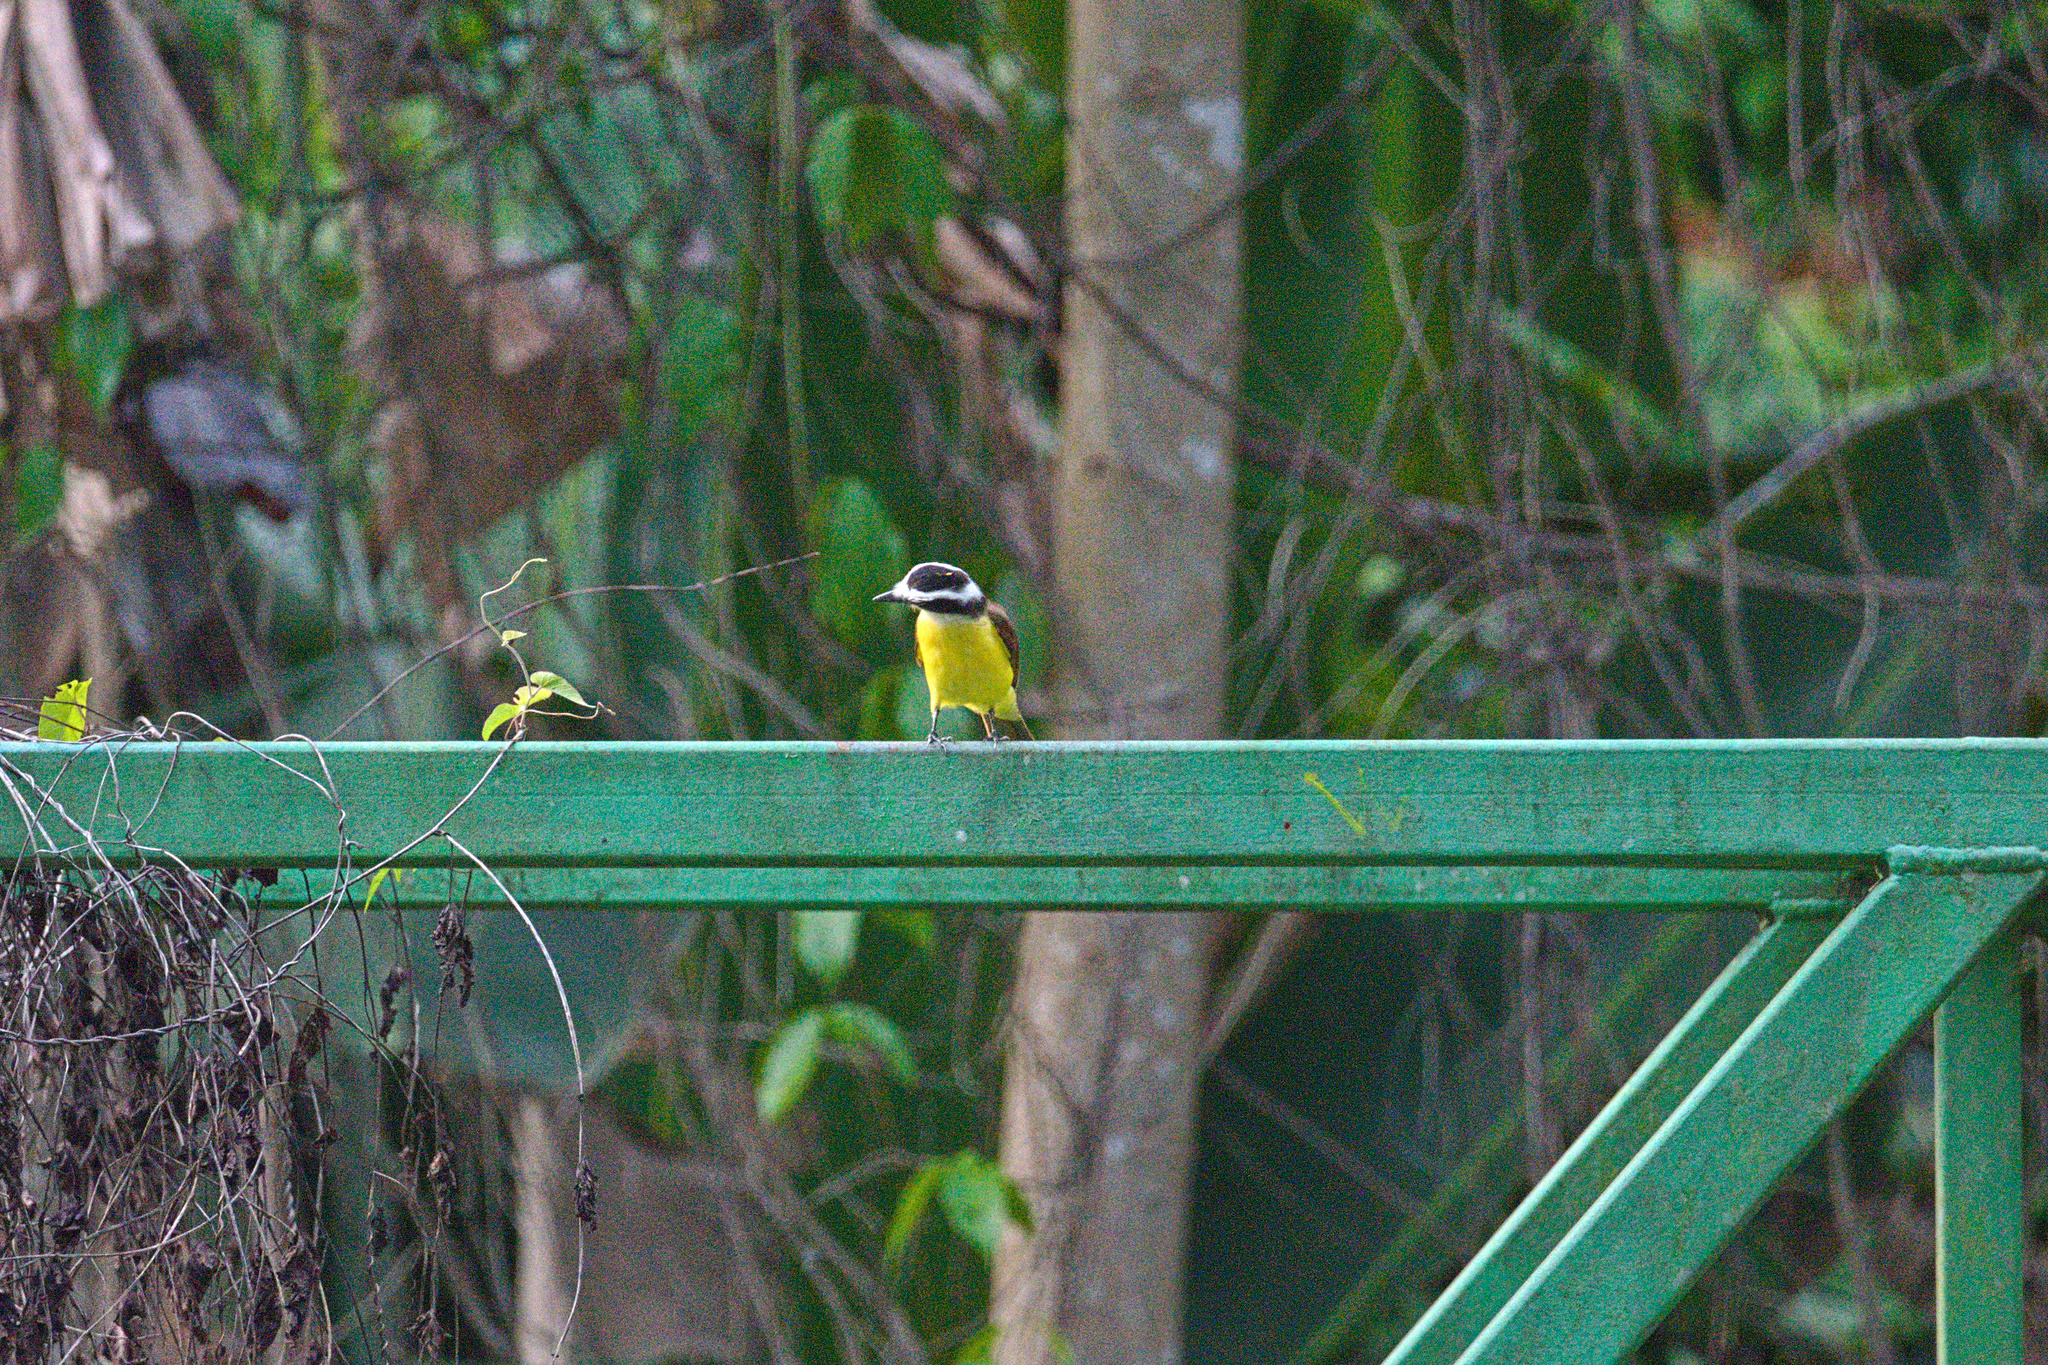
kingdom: Animalia
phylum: Chordata
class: Aves
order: Passeriformes
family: Tyrannidae
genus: Pitangus
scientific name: Pitangus sulphuratus
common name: Great kiskadee
